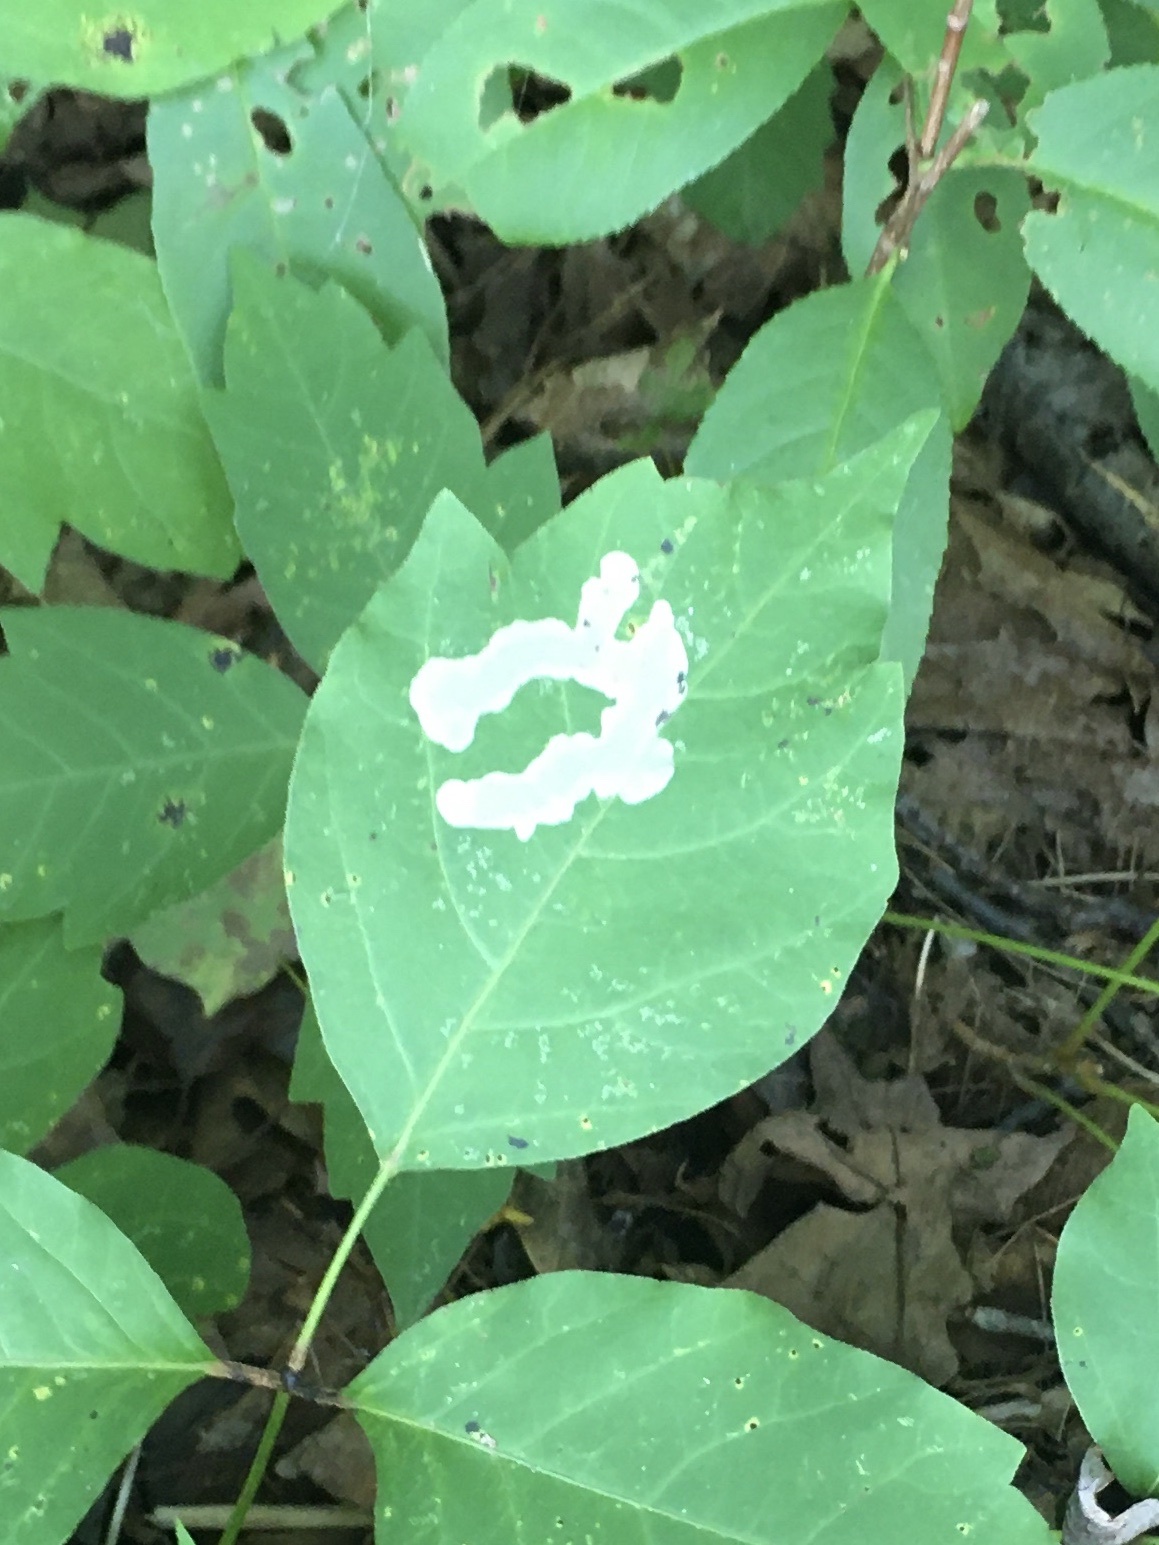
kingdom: Animalia
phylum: Arthropoda
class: Insecta
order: Lepidoptera
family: Gracillariidae
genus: Cameraria
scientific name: Cameraria guttifinitella
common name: Poison ivy leaf-miner moth
